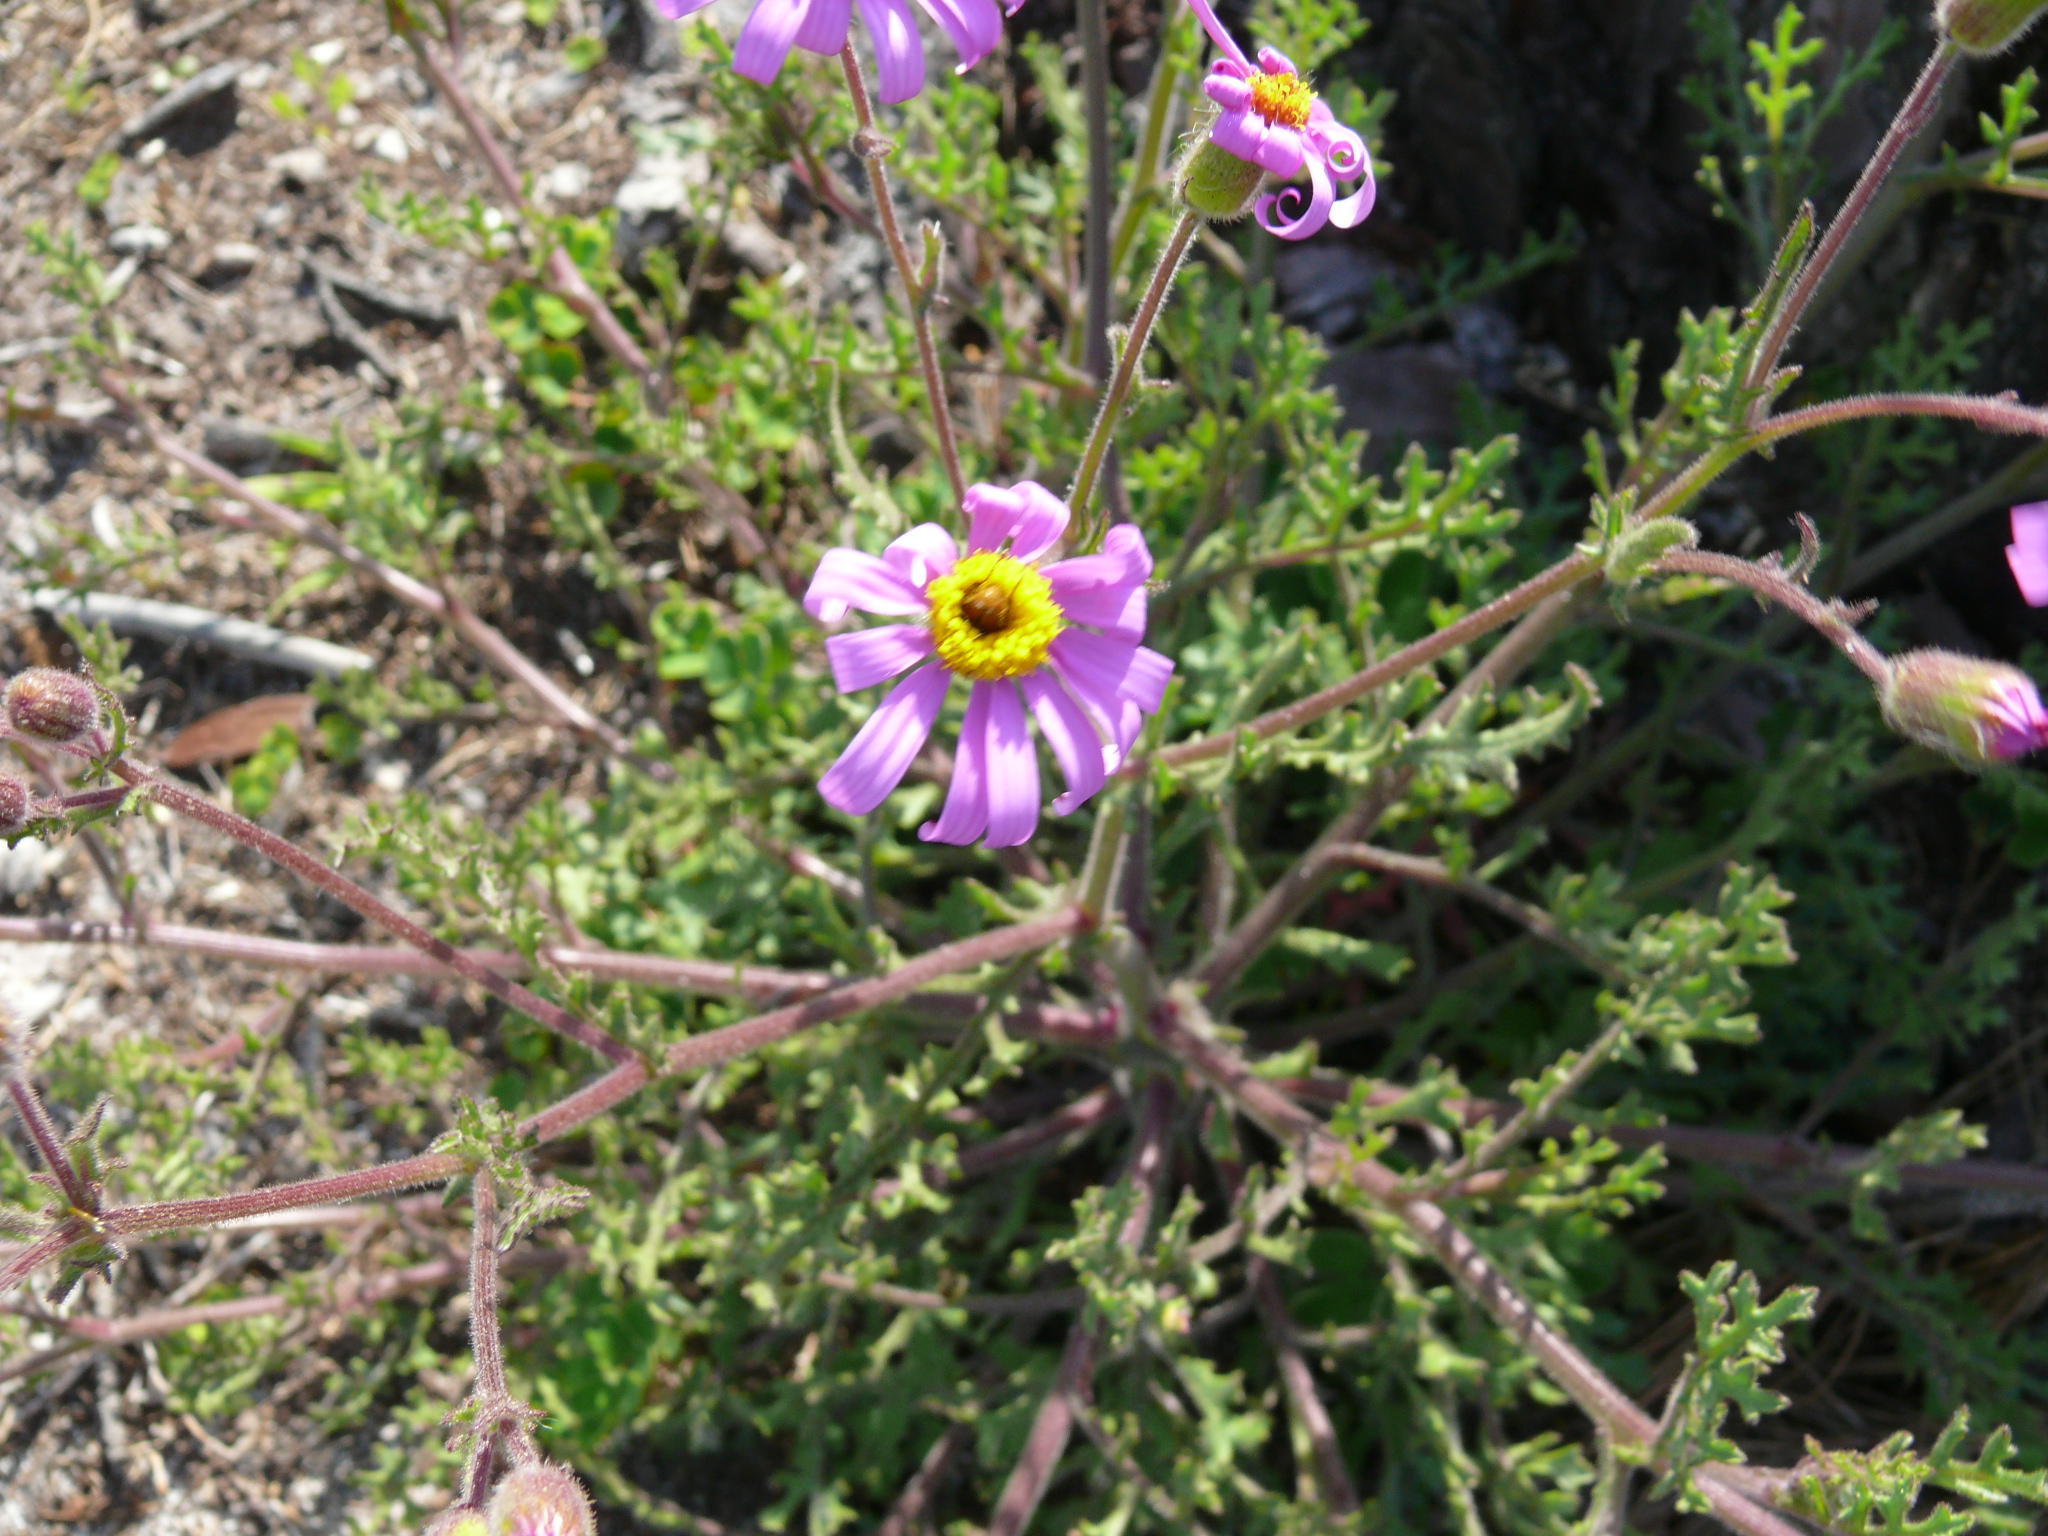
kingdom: Plantae
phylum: Tracheophyta
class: Magnoliopsida
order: Asterales
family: Asteraceae
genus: Senecio
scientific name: Senecio arenarius
